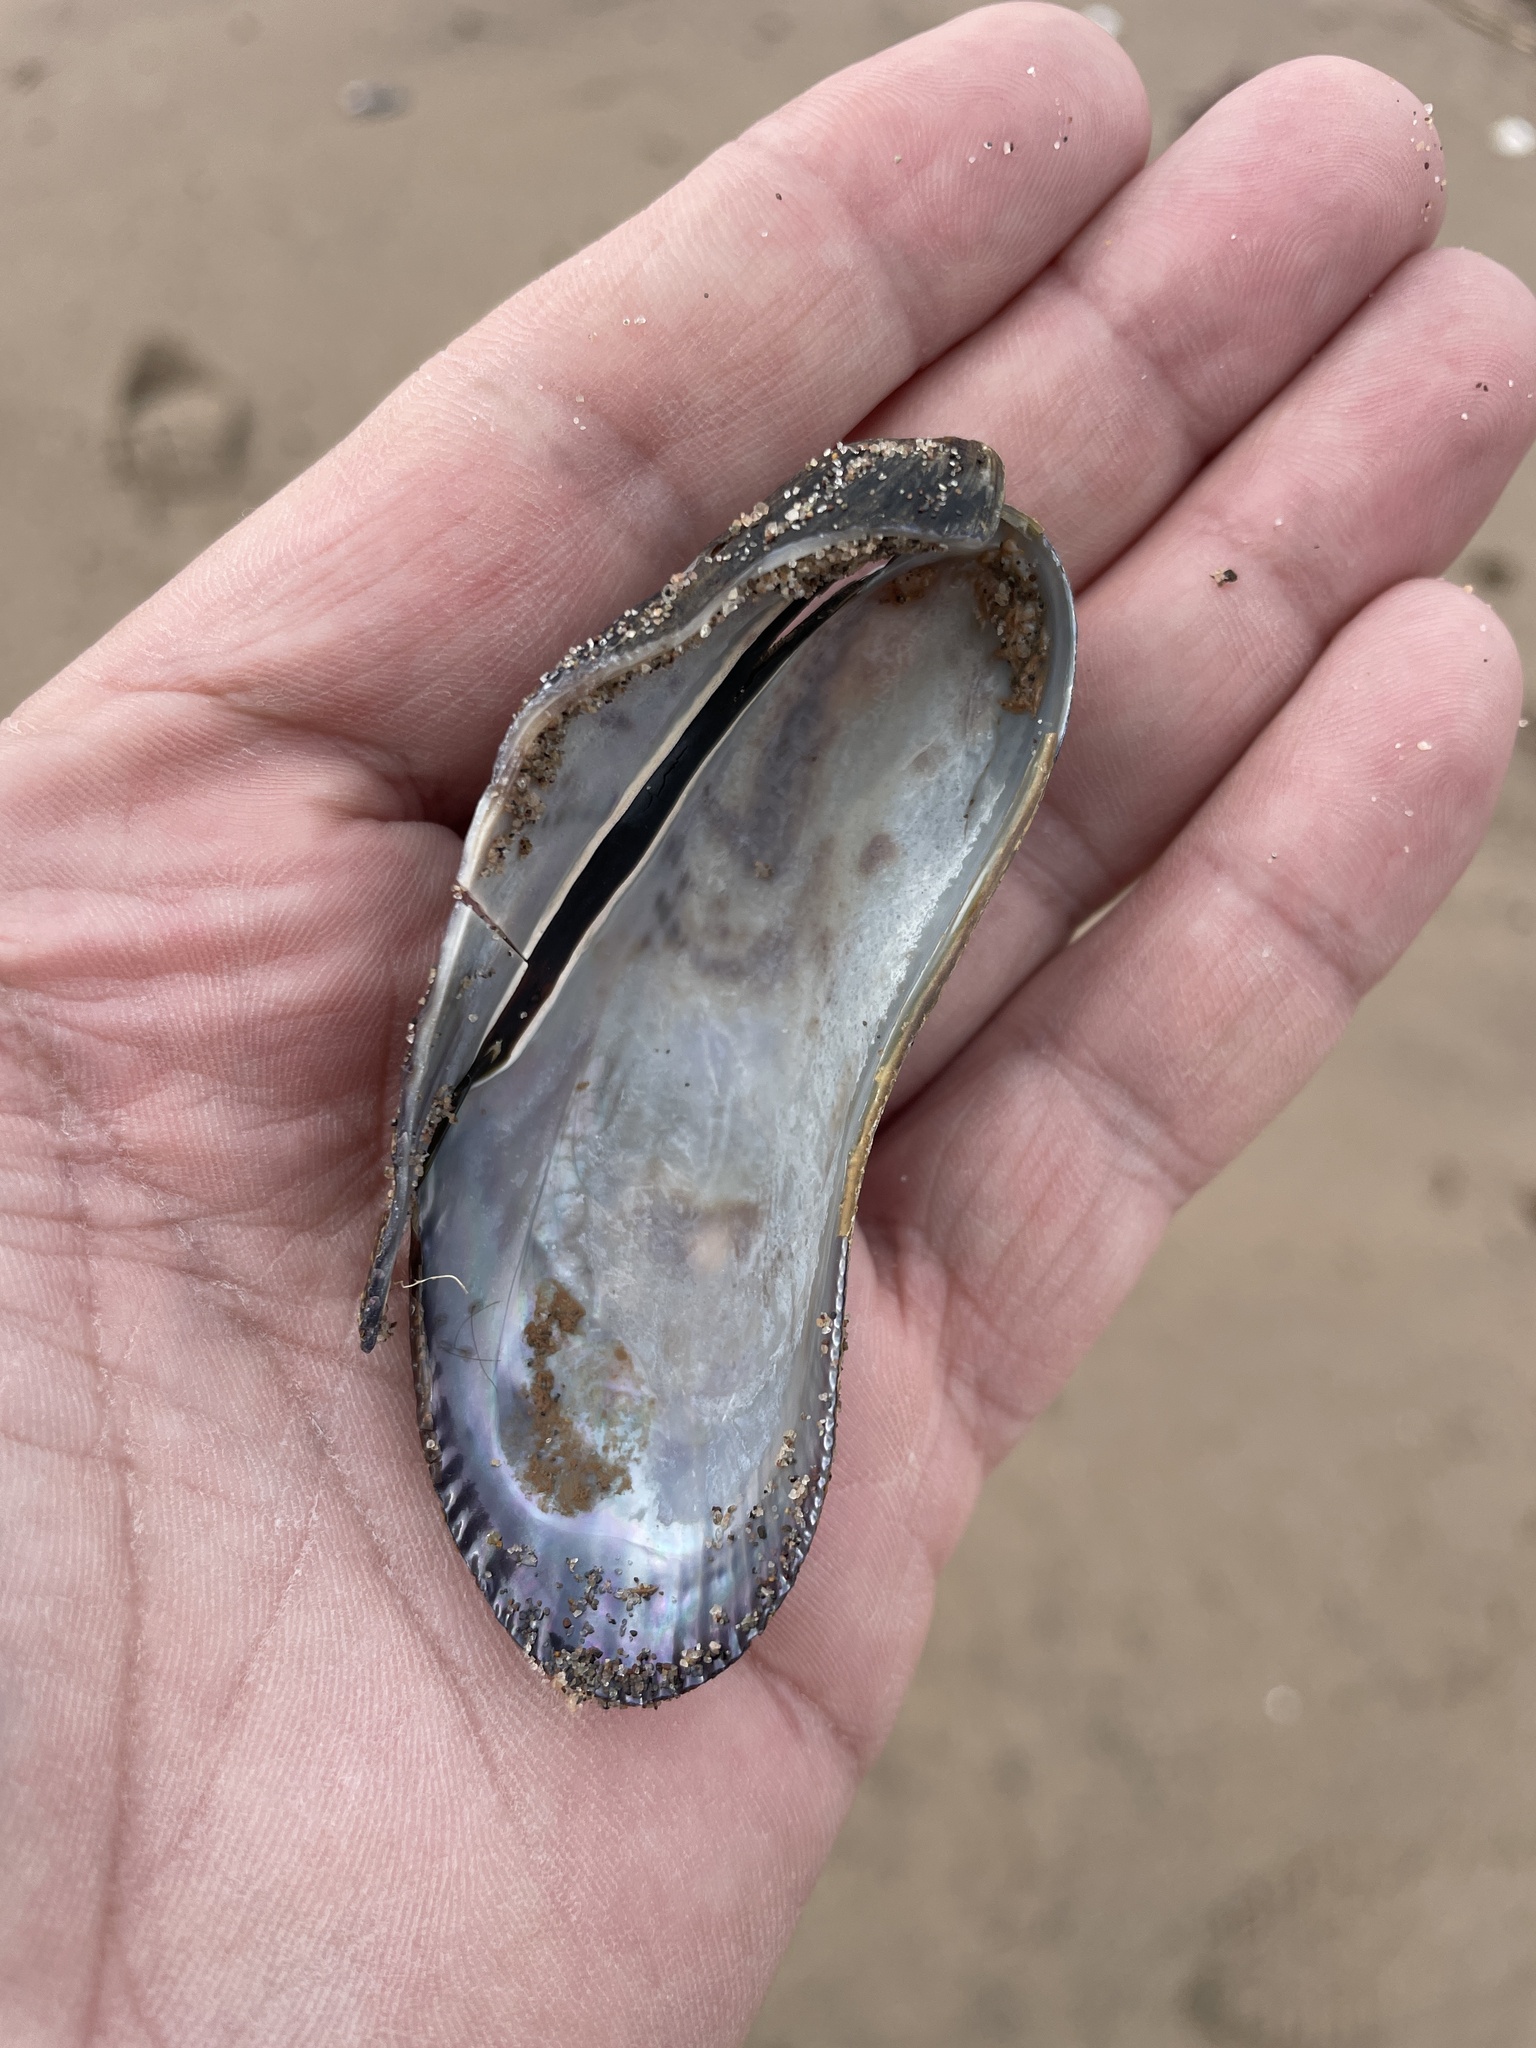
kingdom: Animalia
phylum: Mollusca
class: Bivalvia
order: Mytilida
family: Mytilidae
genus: Geukensia
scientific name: Geukensia demissa
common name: Ribbed mussel
